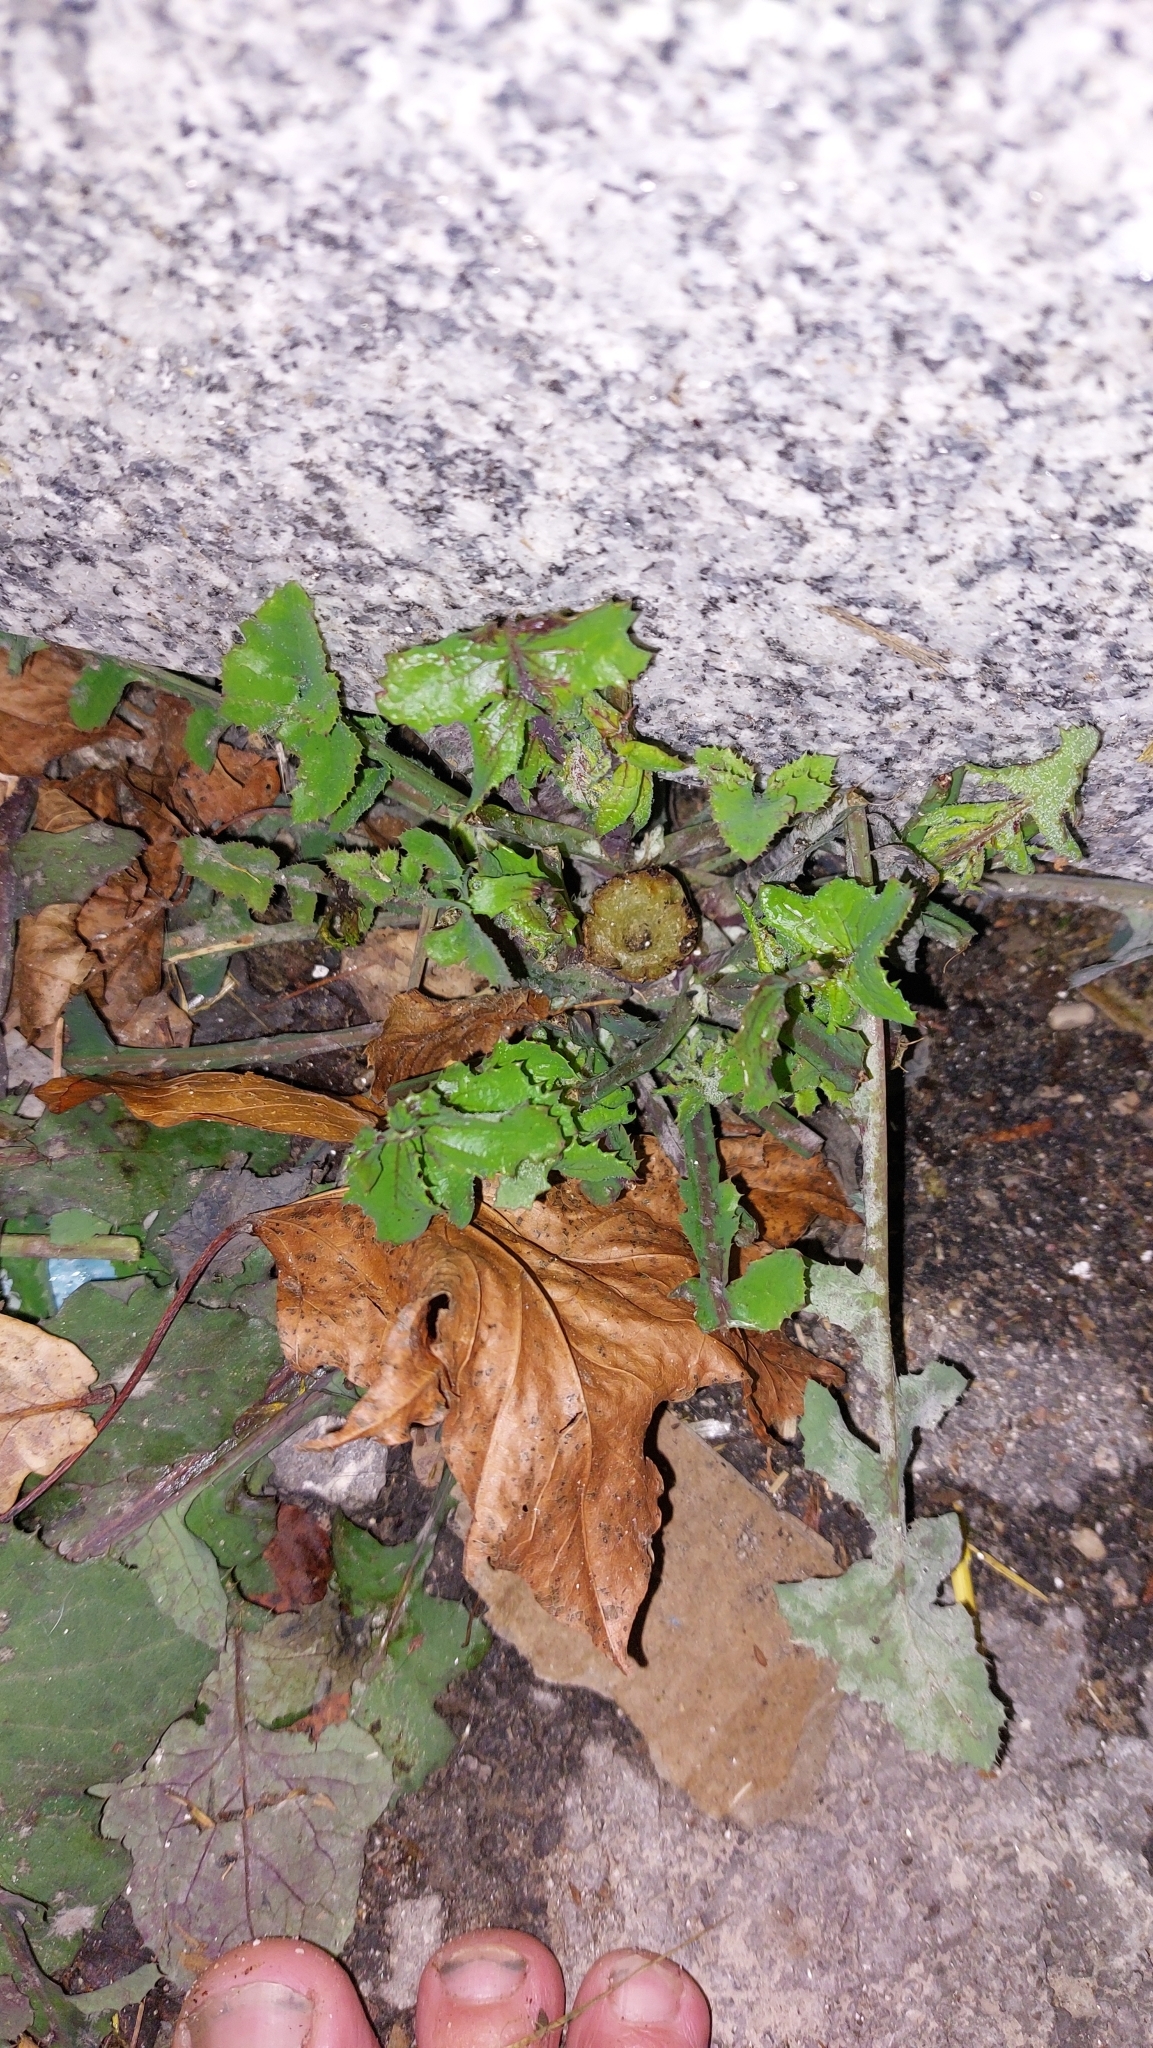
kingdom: Plantae
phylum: Tracheophyta
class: Magnoliopsida
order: Asterales
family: Asteraceae
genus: Sonchus
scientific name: Sonchus oleraceus
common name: Common sowthistle
